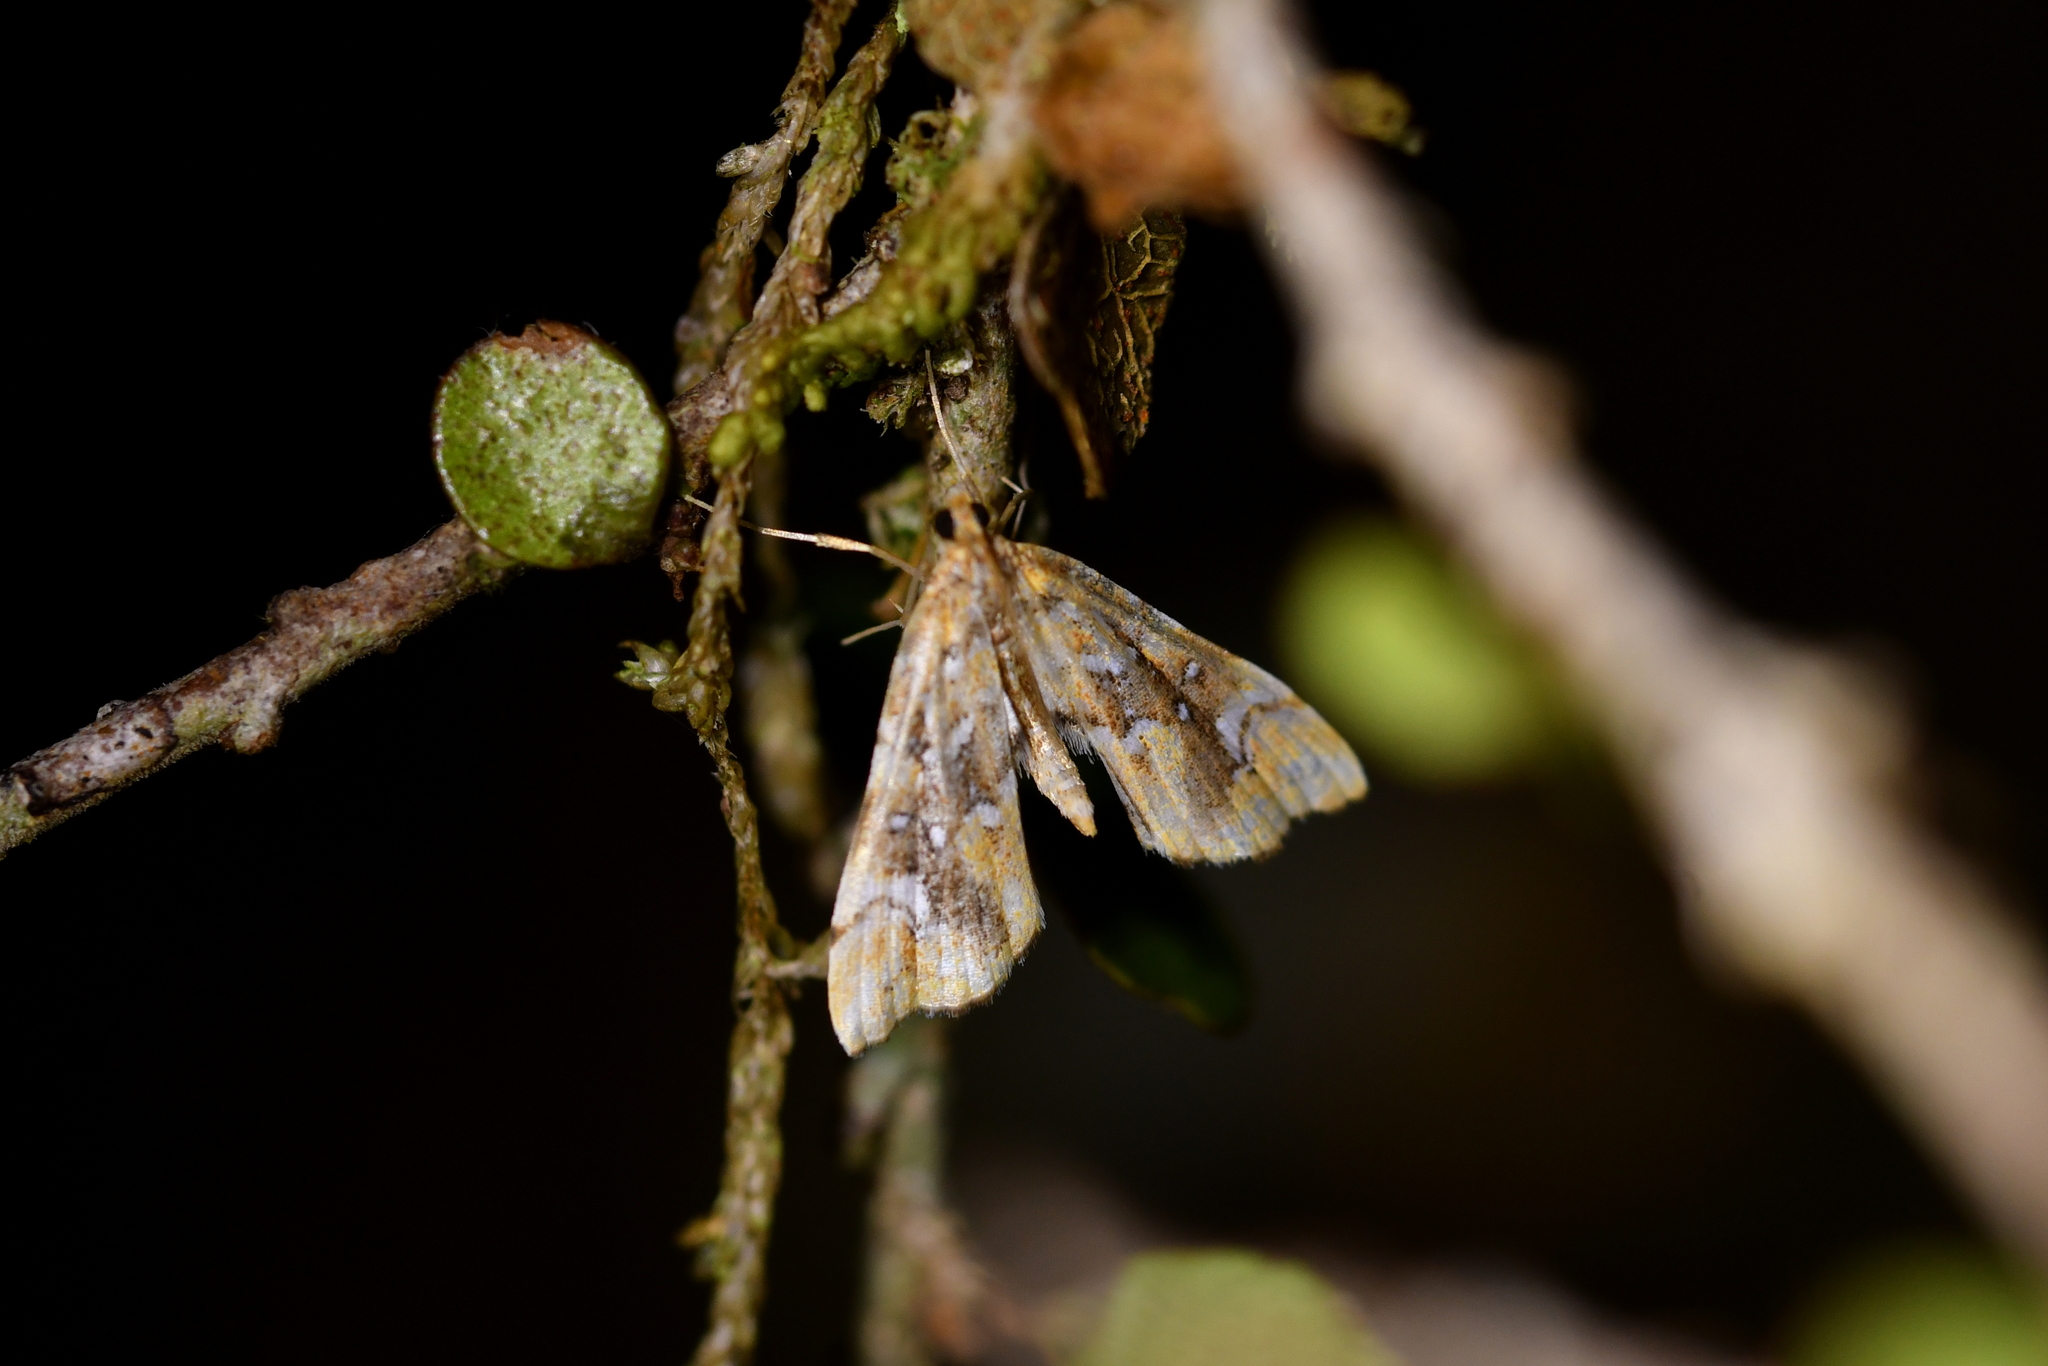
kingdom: Animalia
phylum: Arthropoda
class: Insecta
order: Lepidoptera
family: Pyralidae
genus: Musotima
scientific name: Musotima nitidalis
